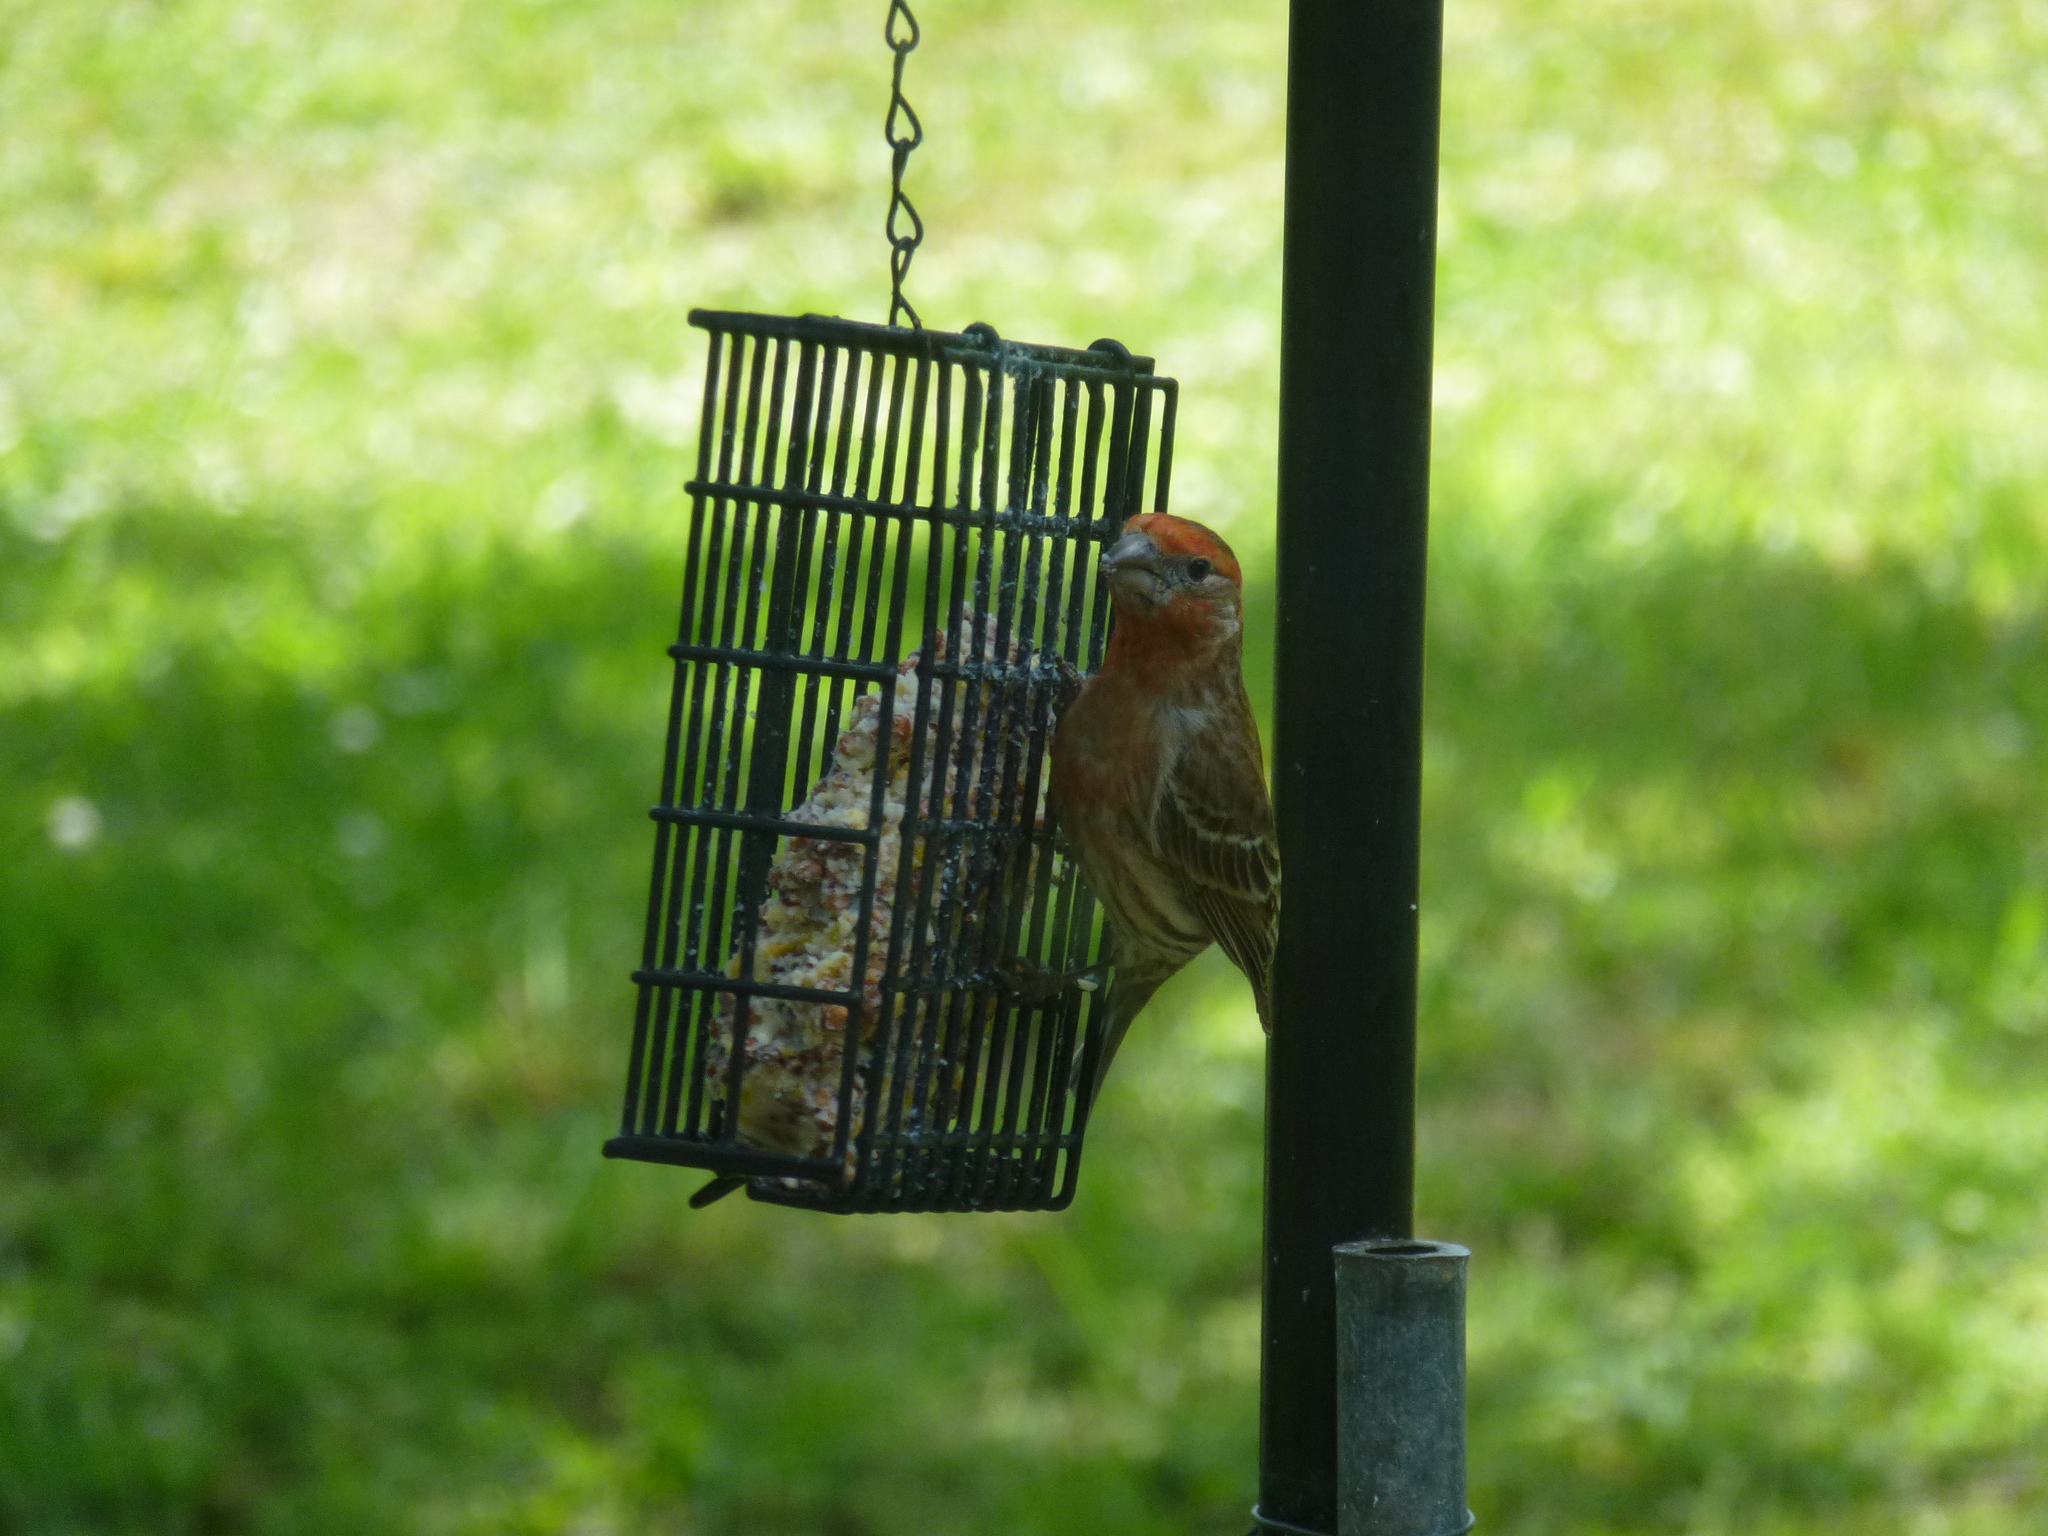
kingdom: Animalia
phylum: Chordata
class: Aves
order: Passeriformes
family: Fringillidae
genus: Haemorhous
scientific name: Haemorhous mexicanus
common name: House finch
